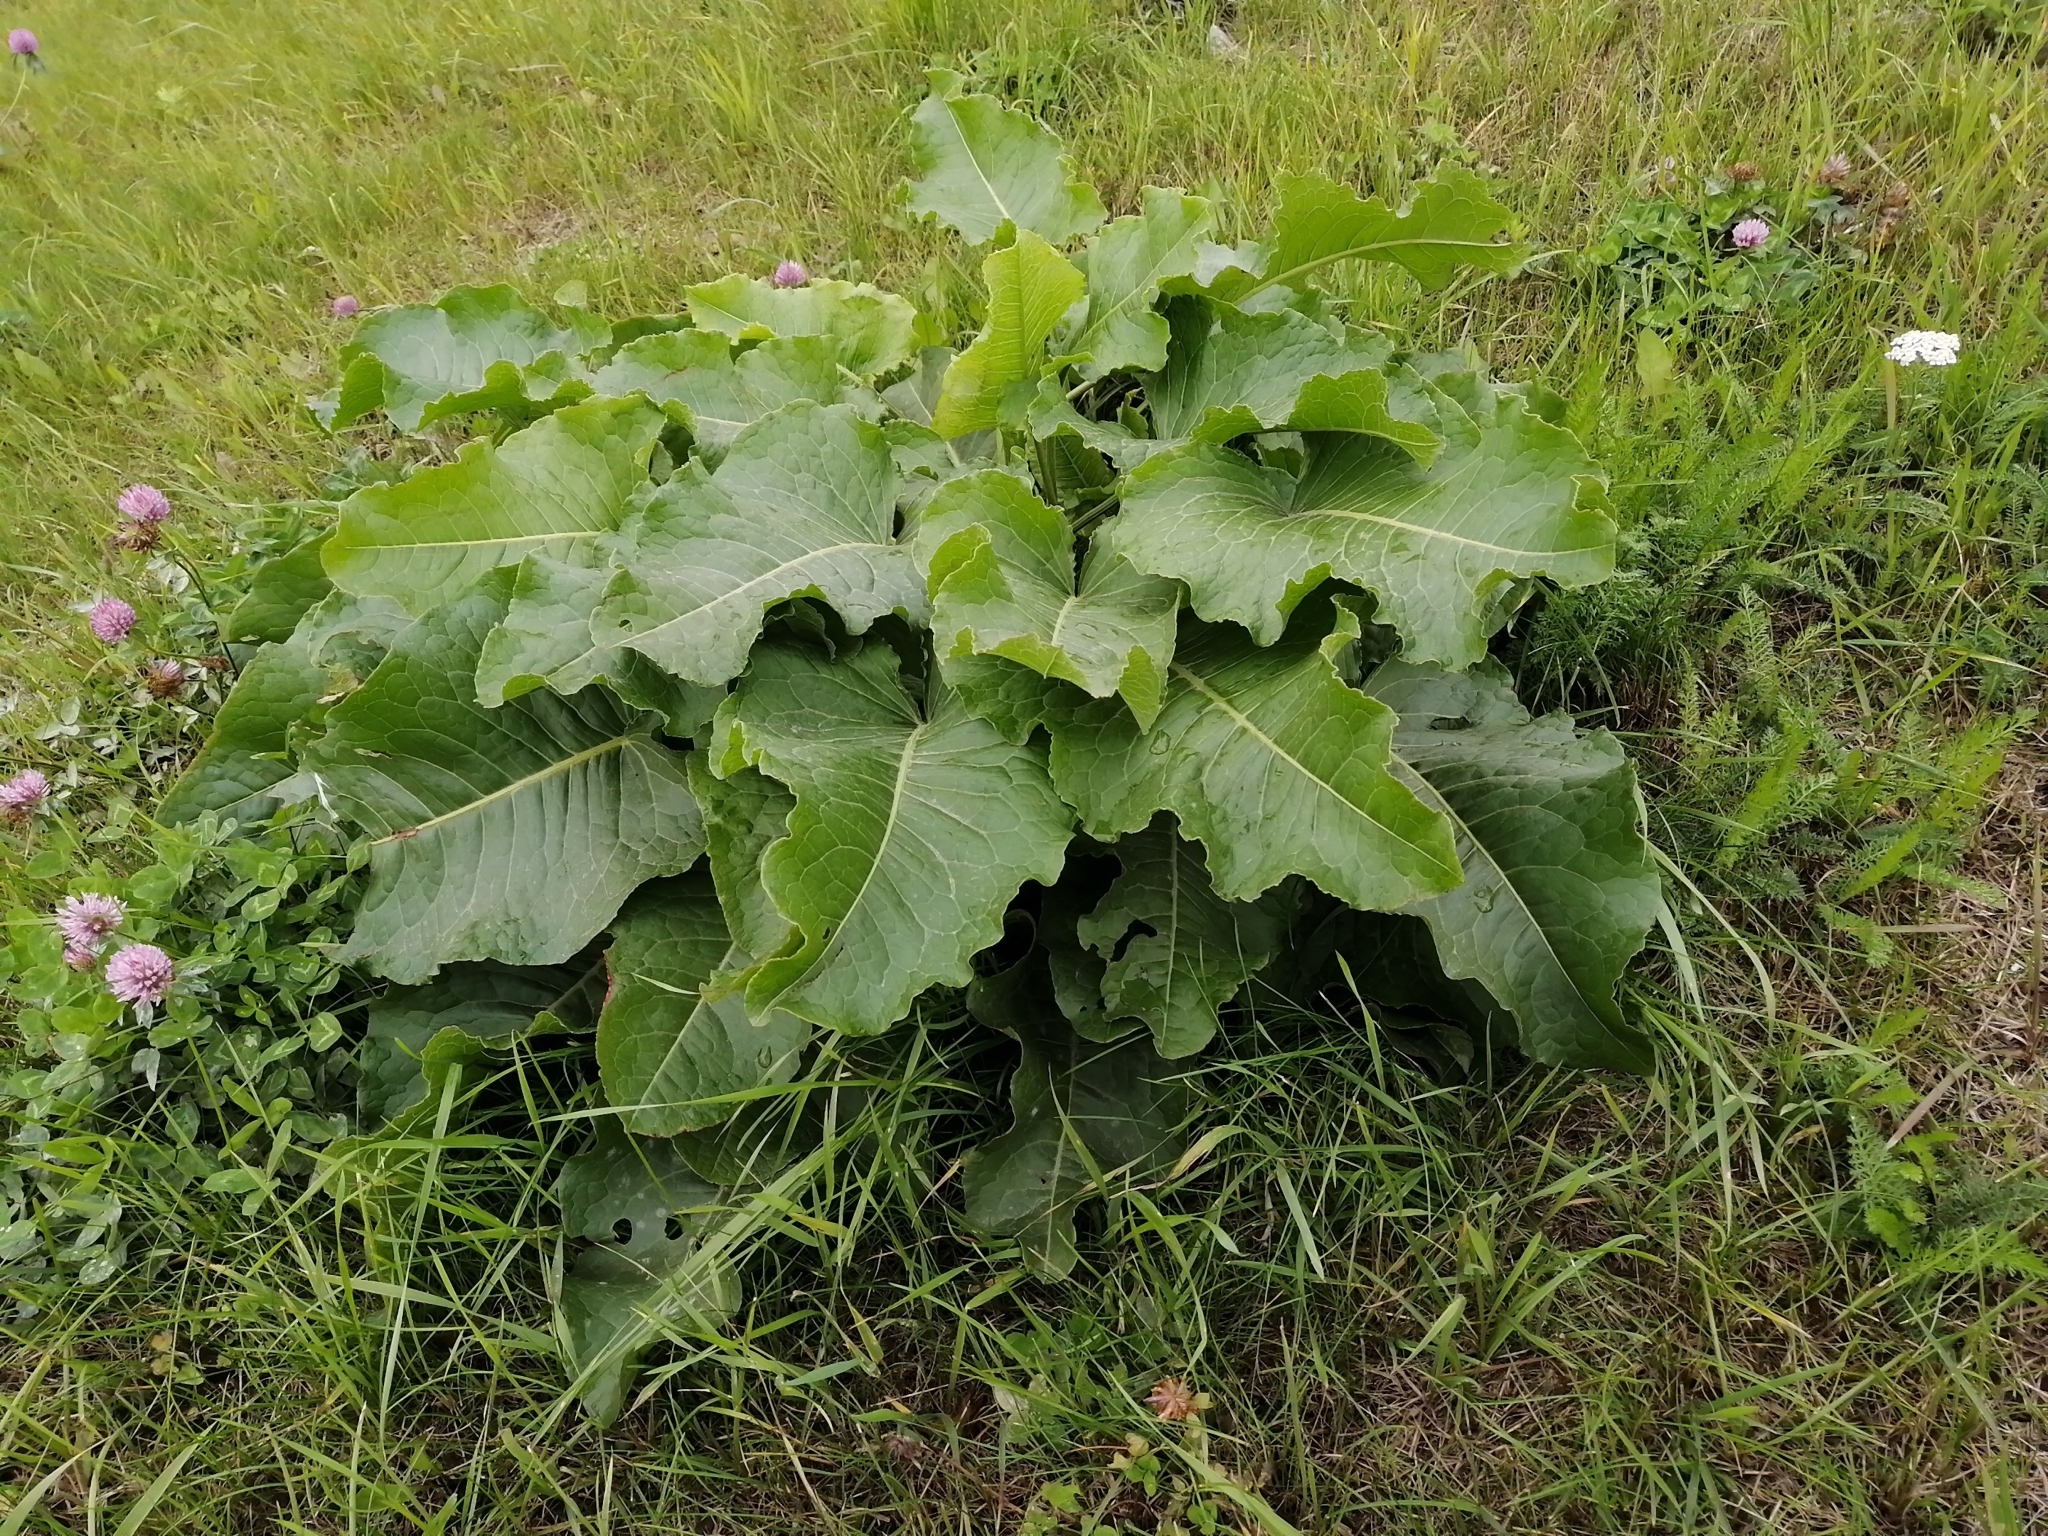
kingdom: Plantae
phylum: Tracheophyta
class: Magnoliopsida
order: Caryophyllales
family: Polygonaceae
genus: Rumex
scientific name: Rumex confertus
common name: Russian dock
